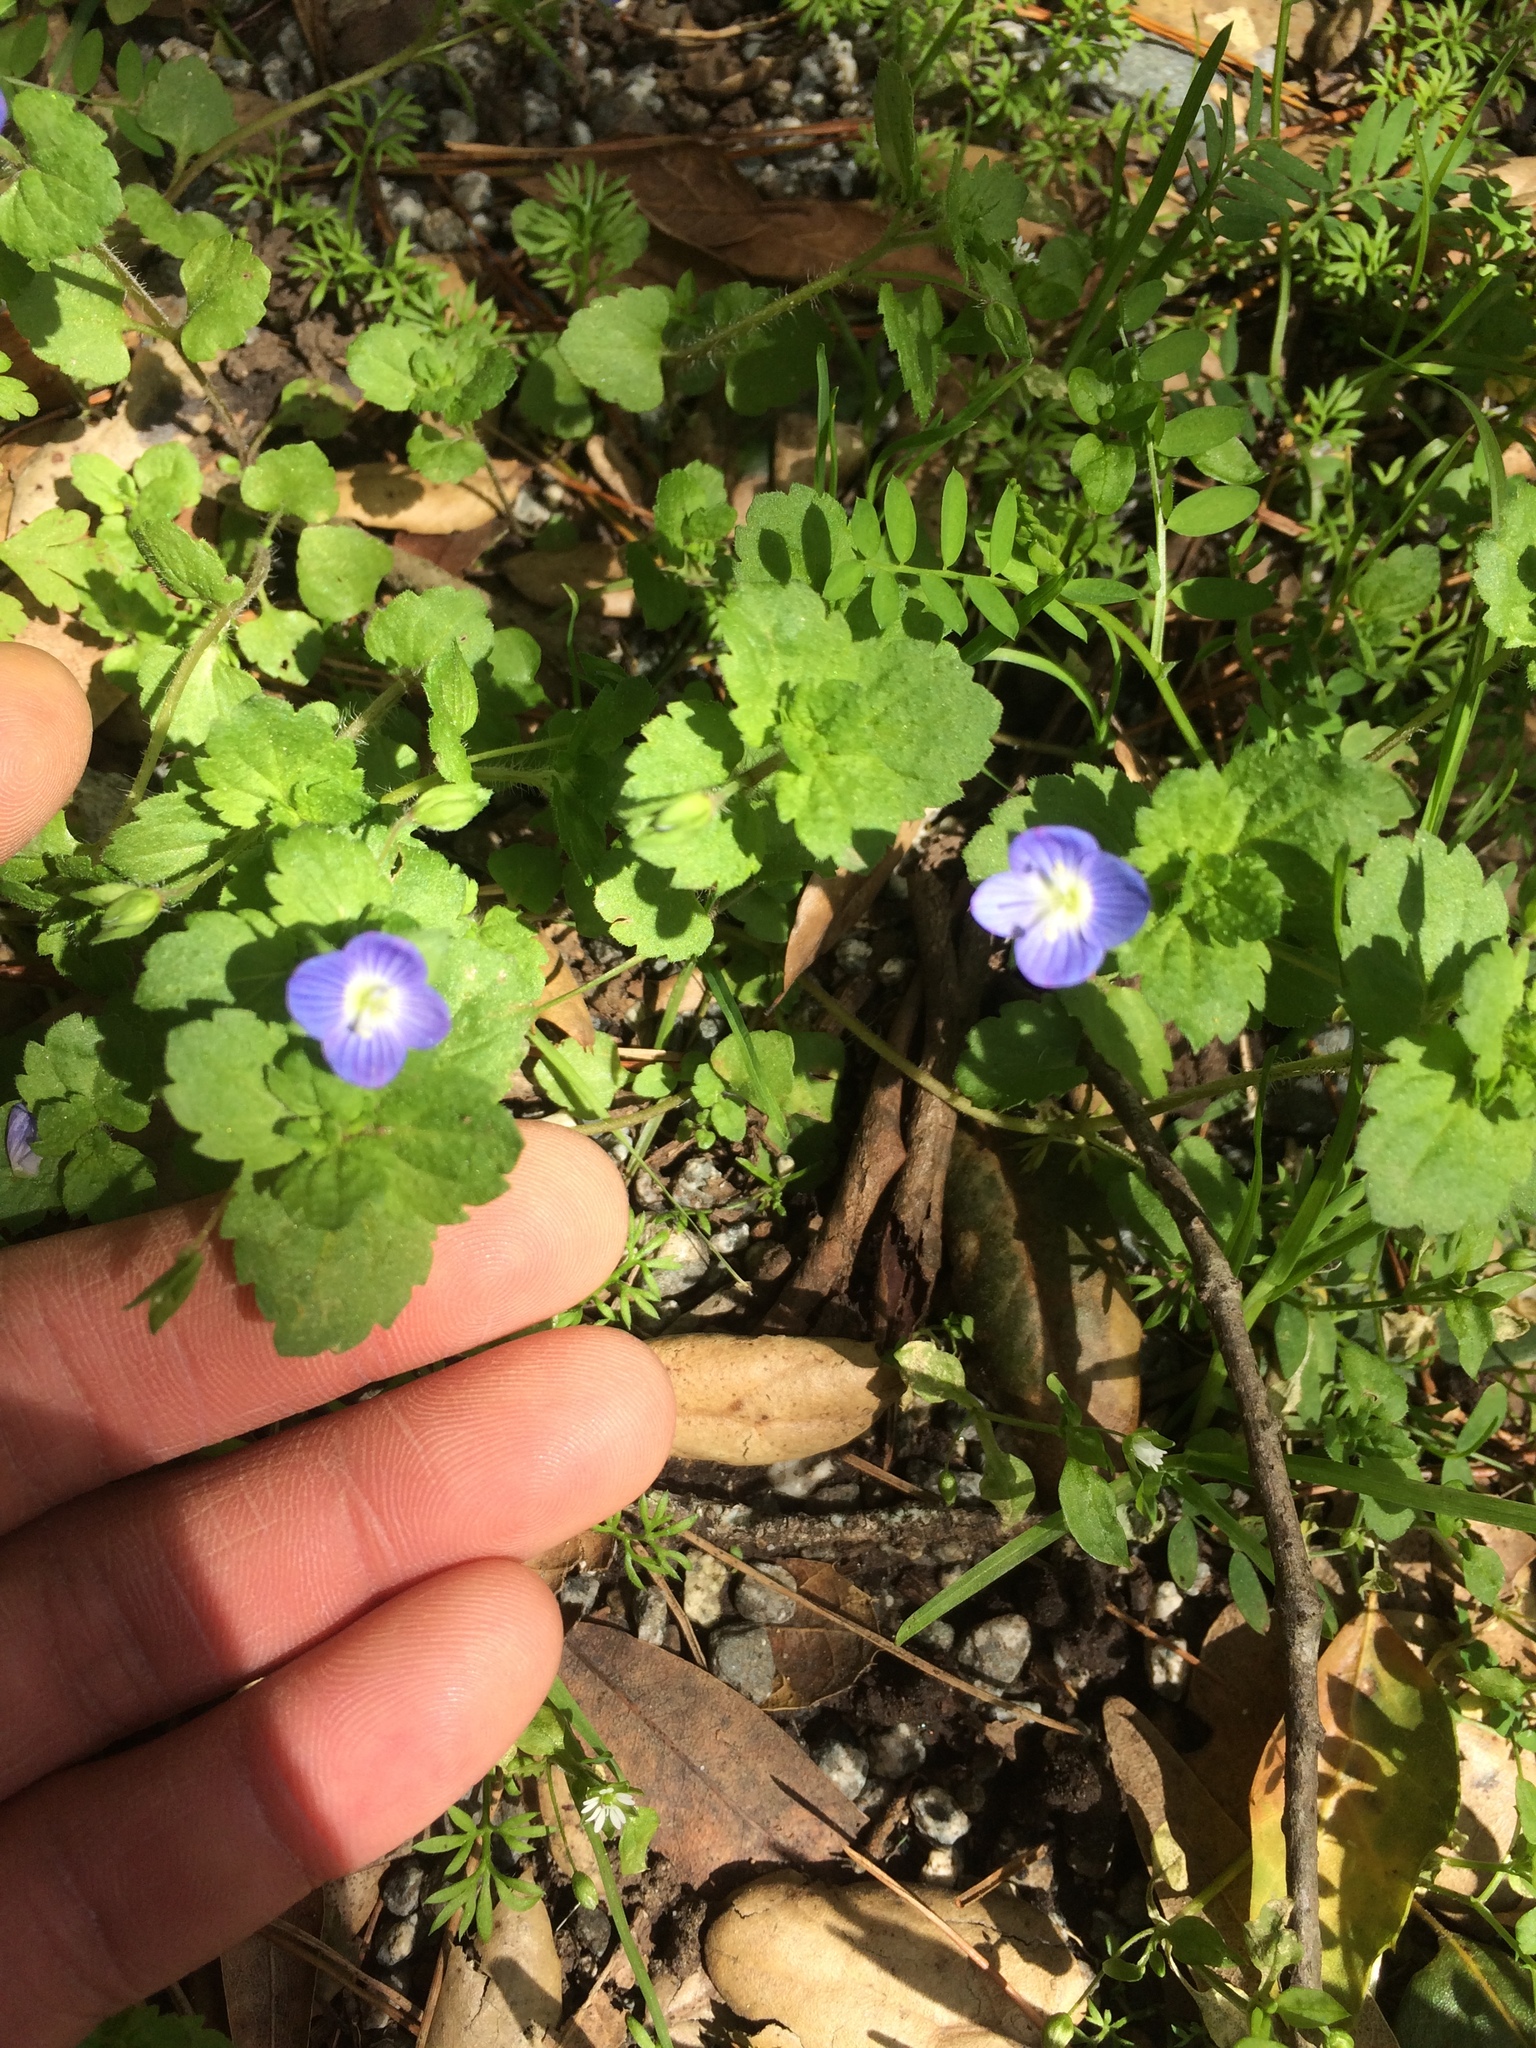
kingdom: Plantae
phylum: Tracheophyta
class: Magnoliopsida
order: Lamiales
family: Plantaginaceae
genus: Veronica
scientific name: Veronica persica
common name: Common field-speedwell
